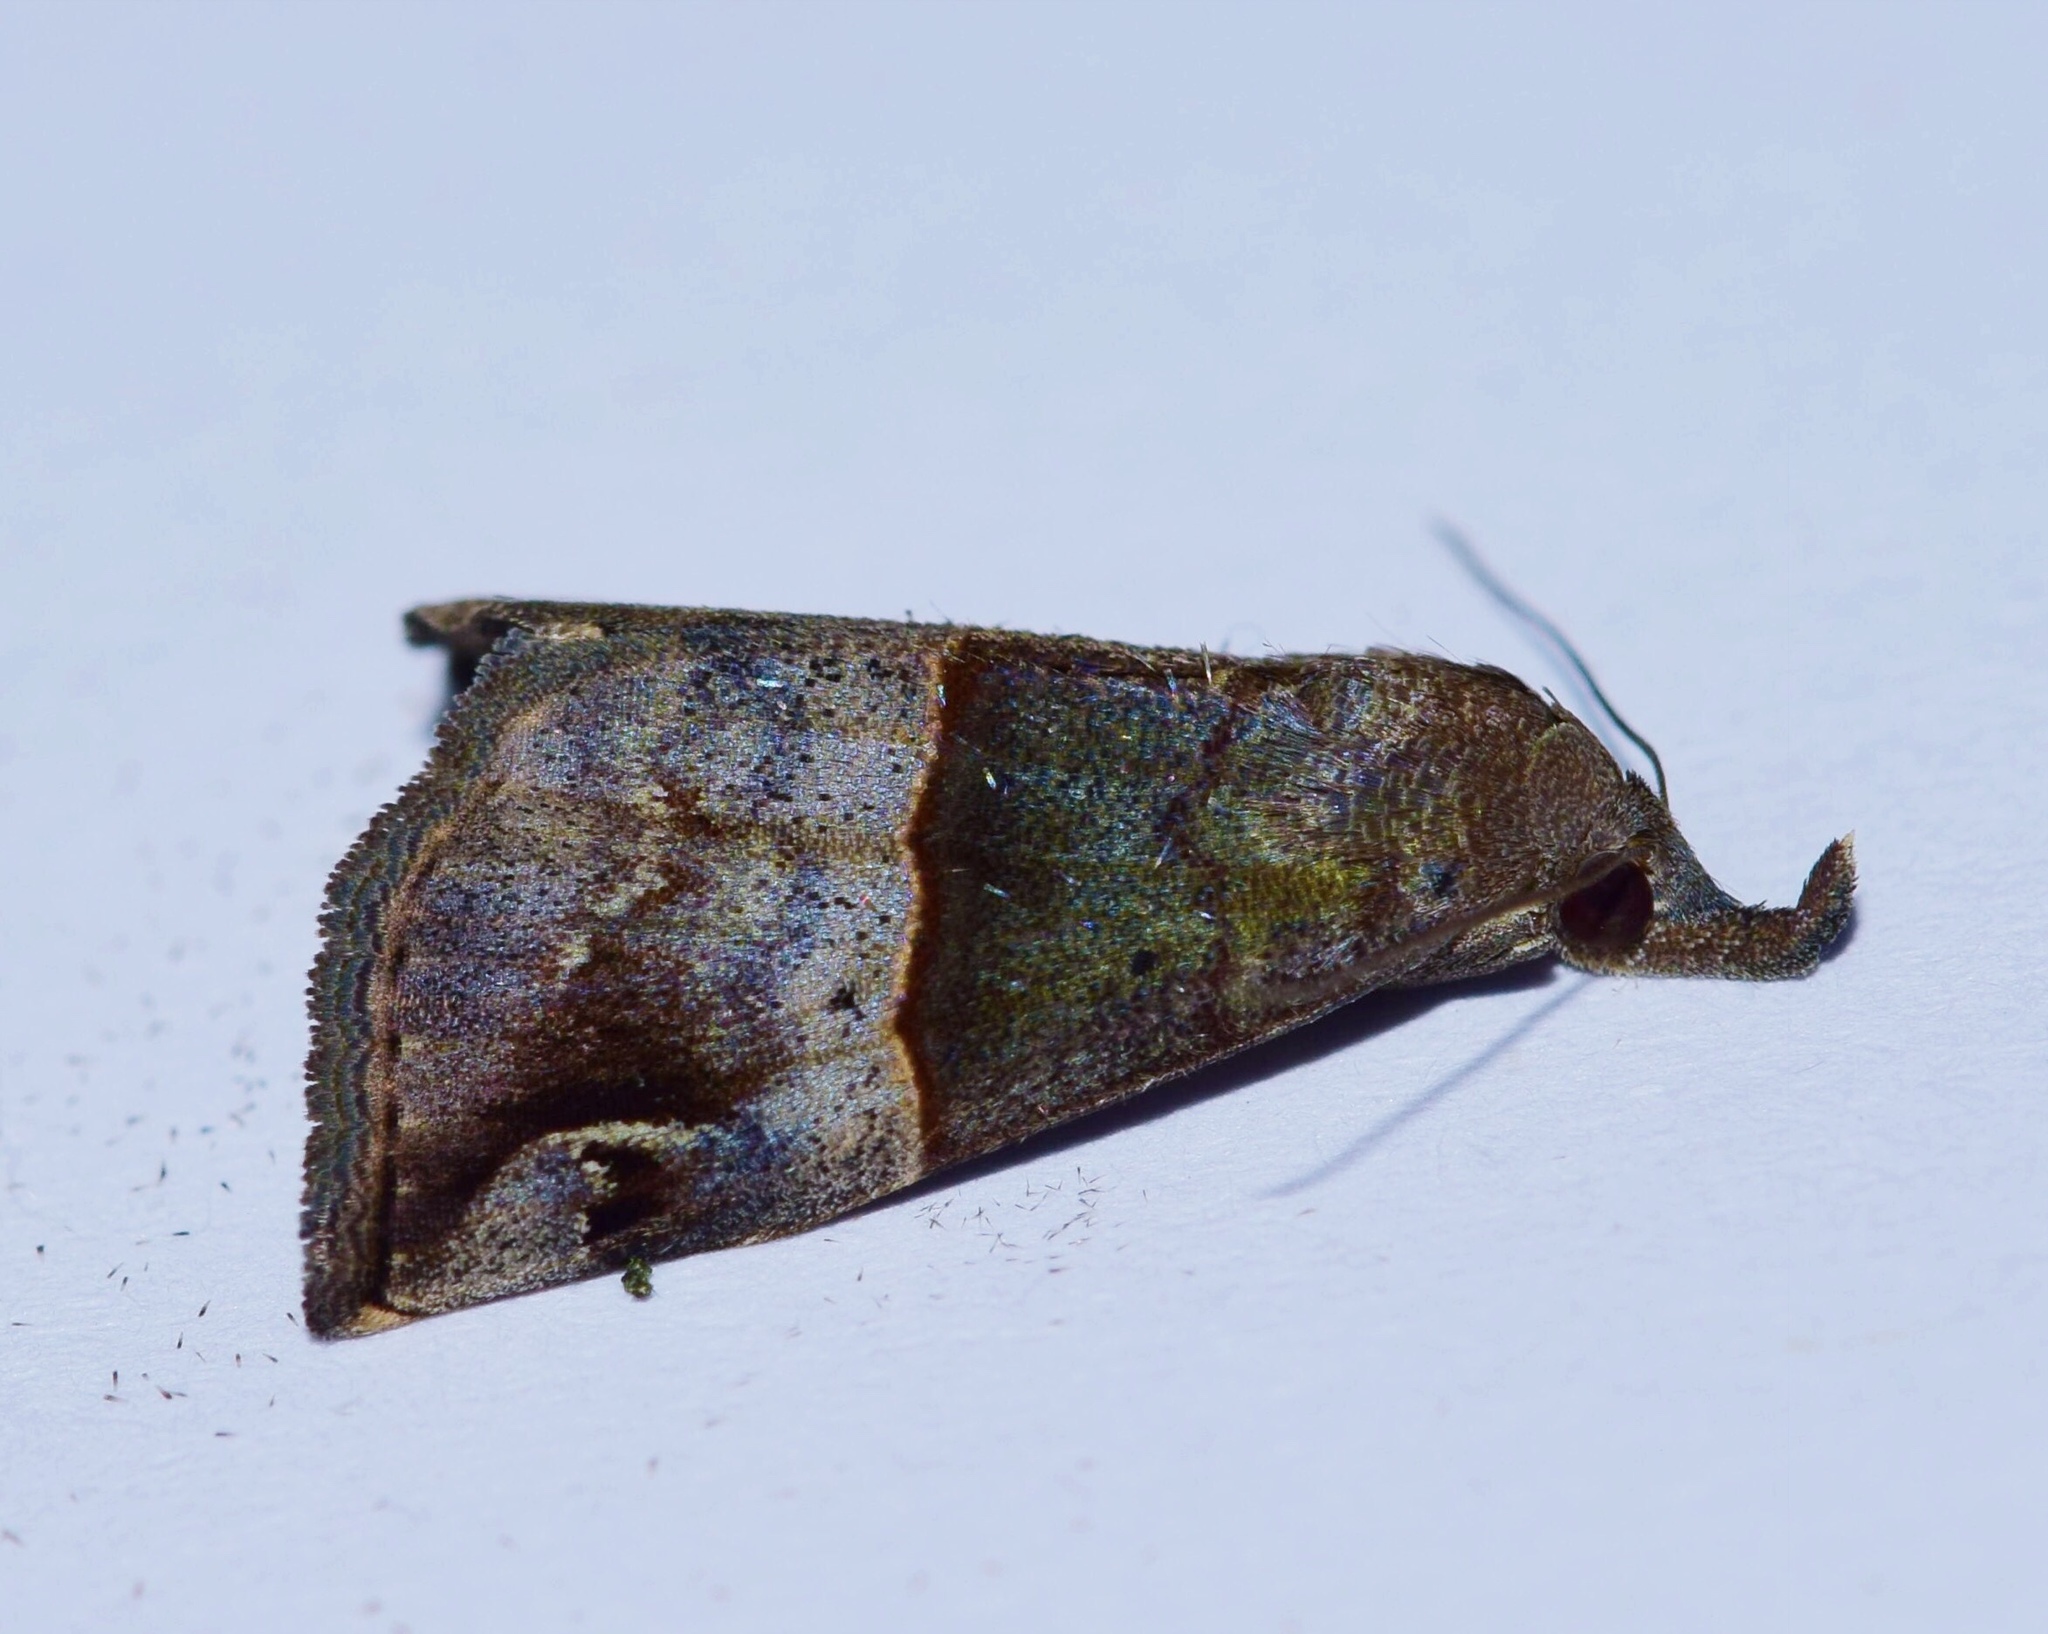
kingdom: Animalia
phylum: Arthropoda
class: Insecta
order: Lepidoptera
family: Erebidae
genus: Hypena
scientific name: Hypena
